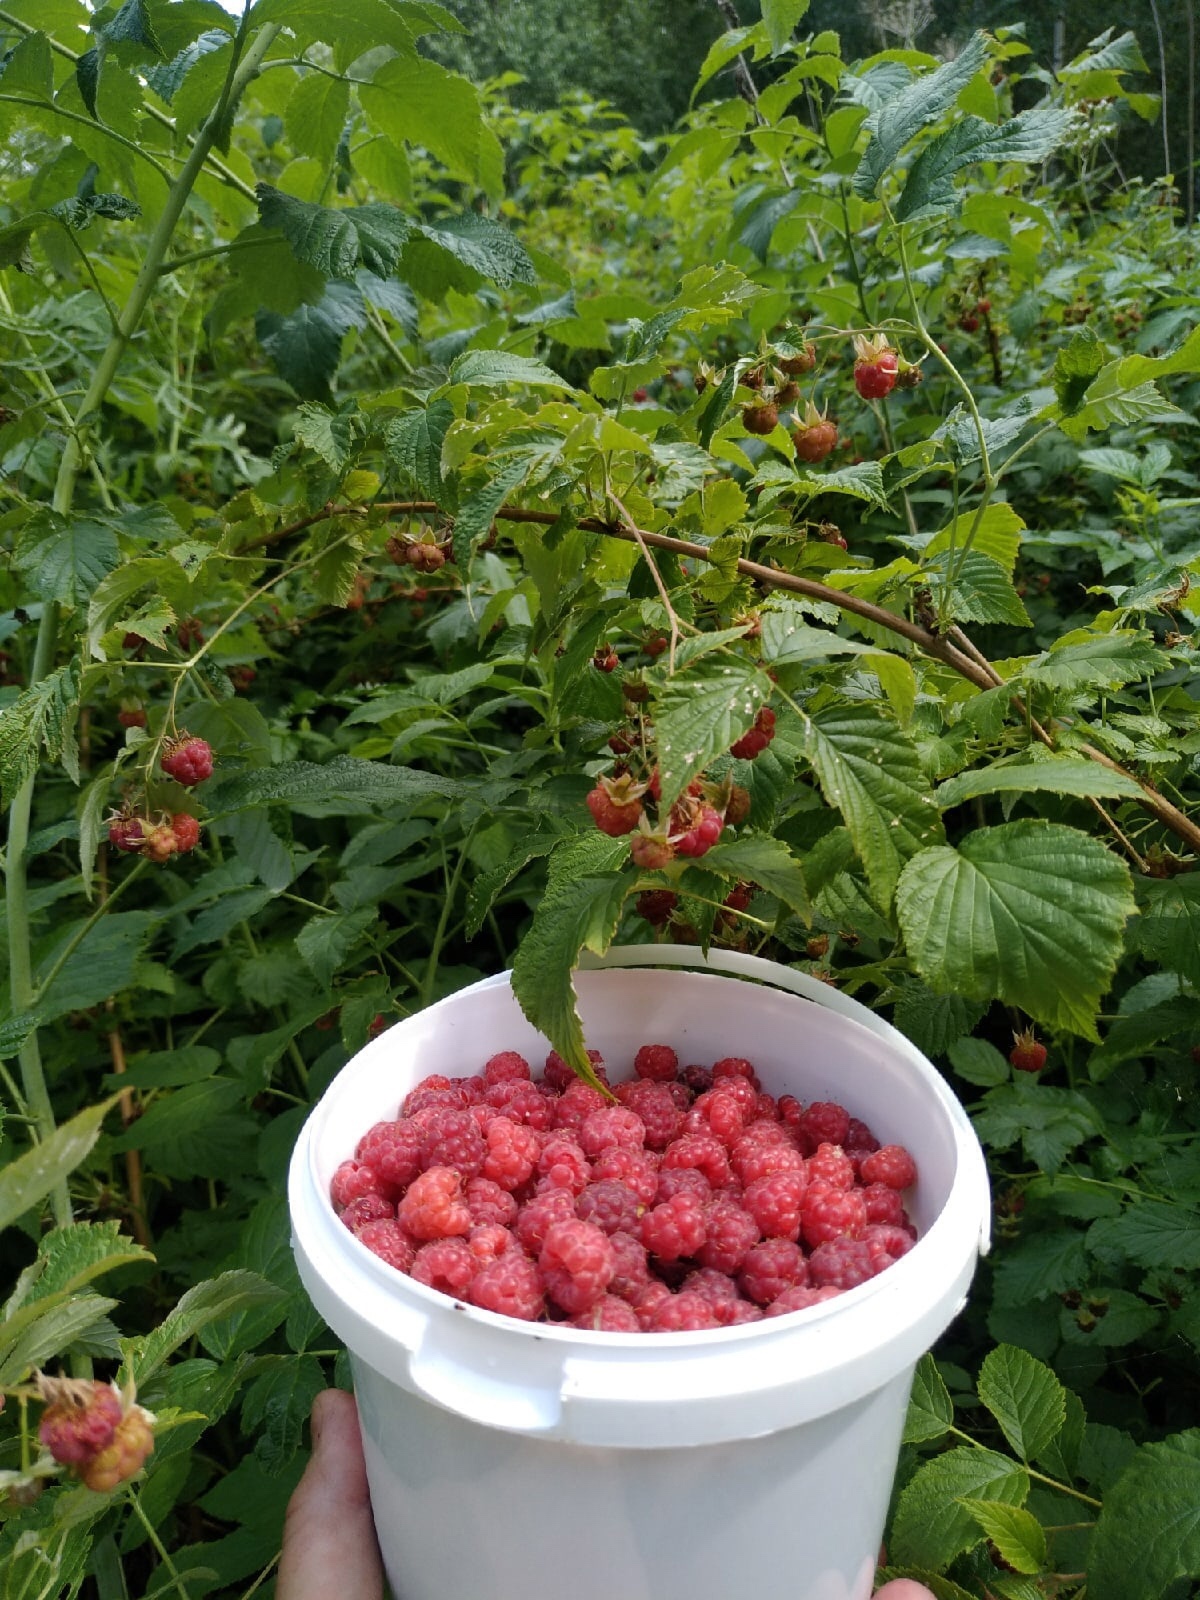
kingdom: Plantae
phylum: Tracheophyta
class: Magnoliopsida
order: Rosales
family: Rosaceae
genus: Rubus
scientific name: Rubus idaeus
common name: Raspberry
